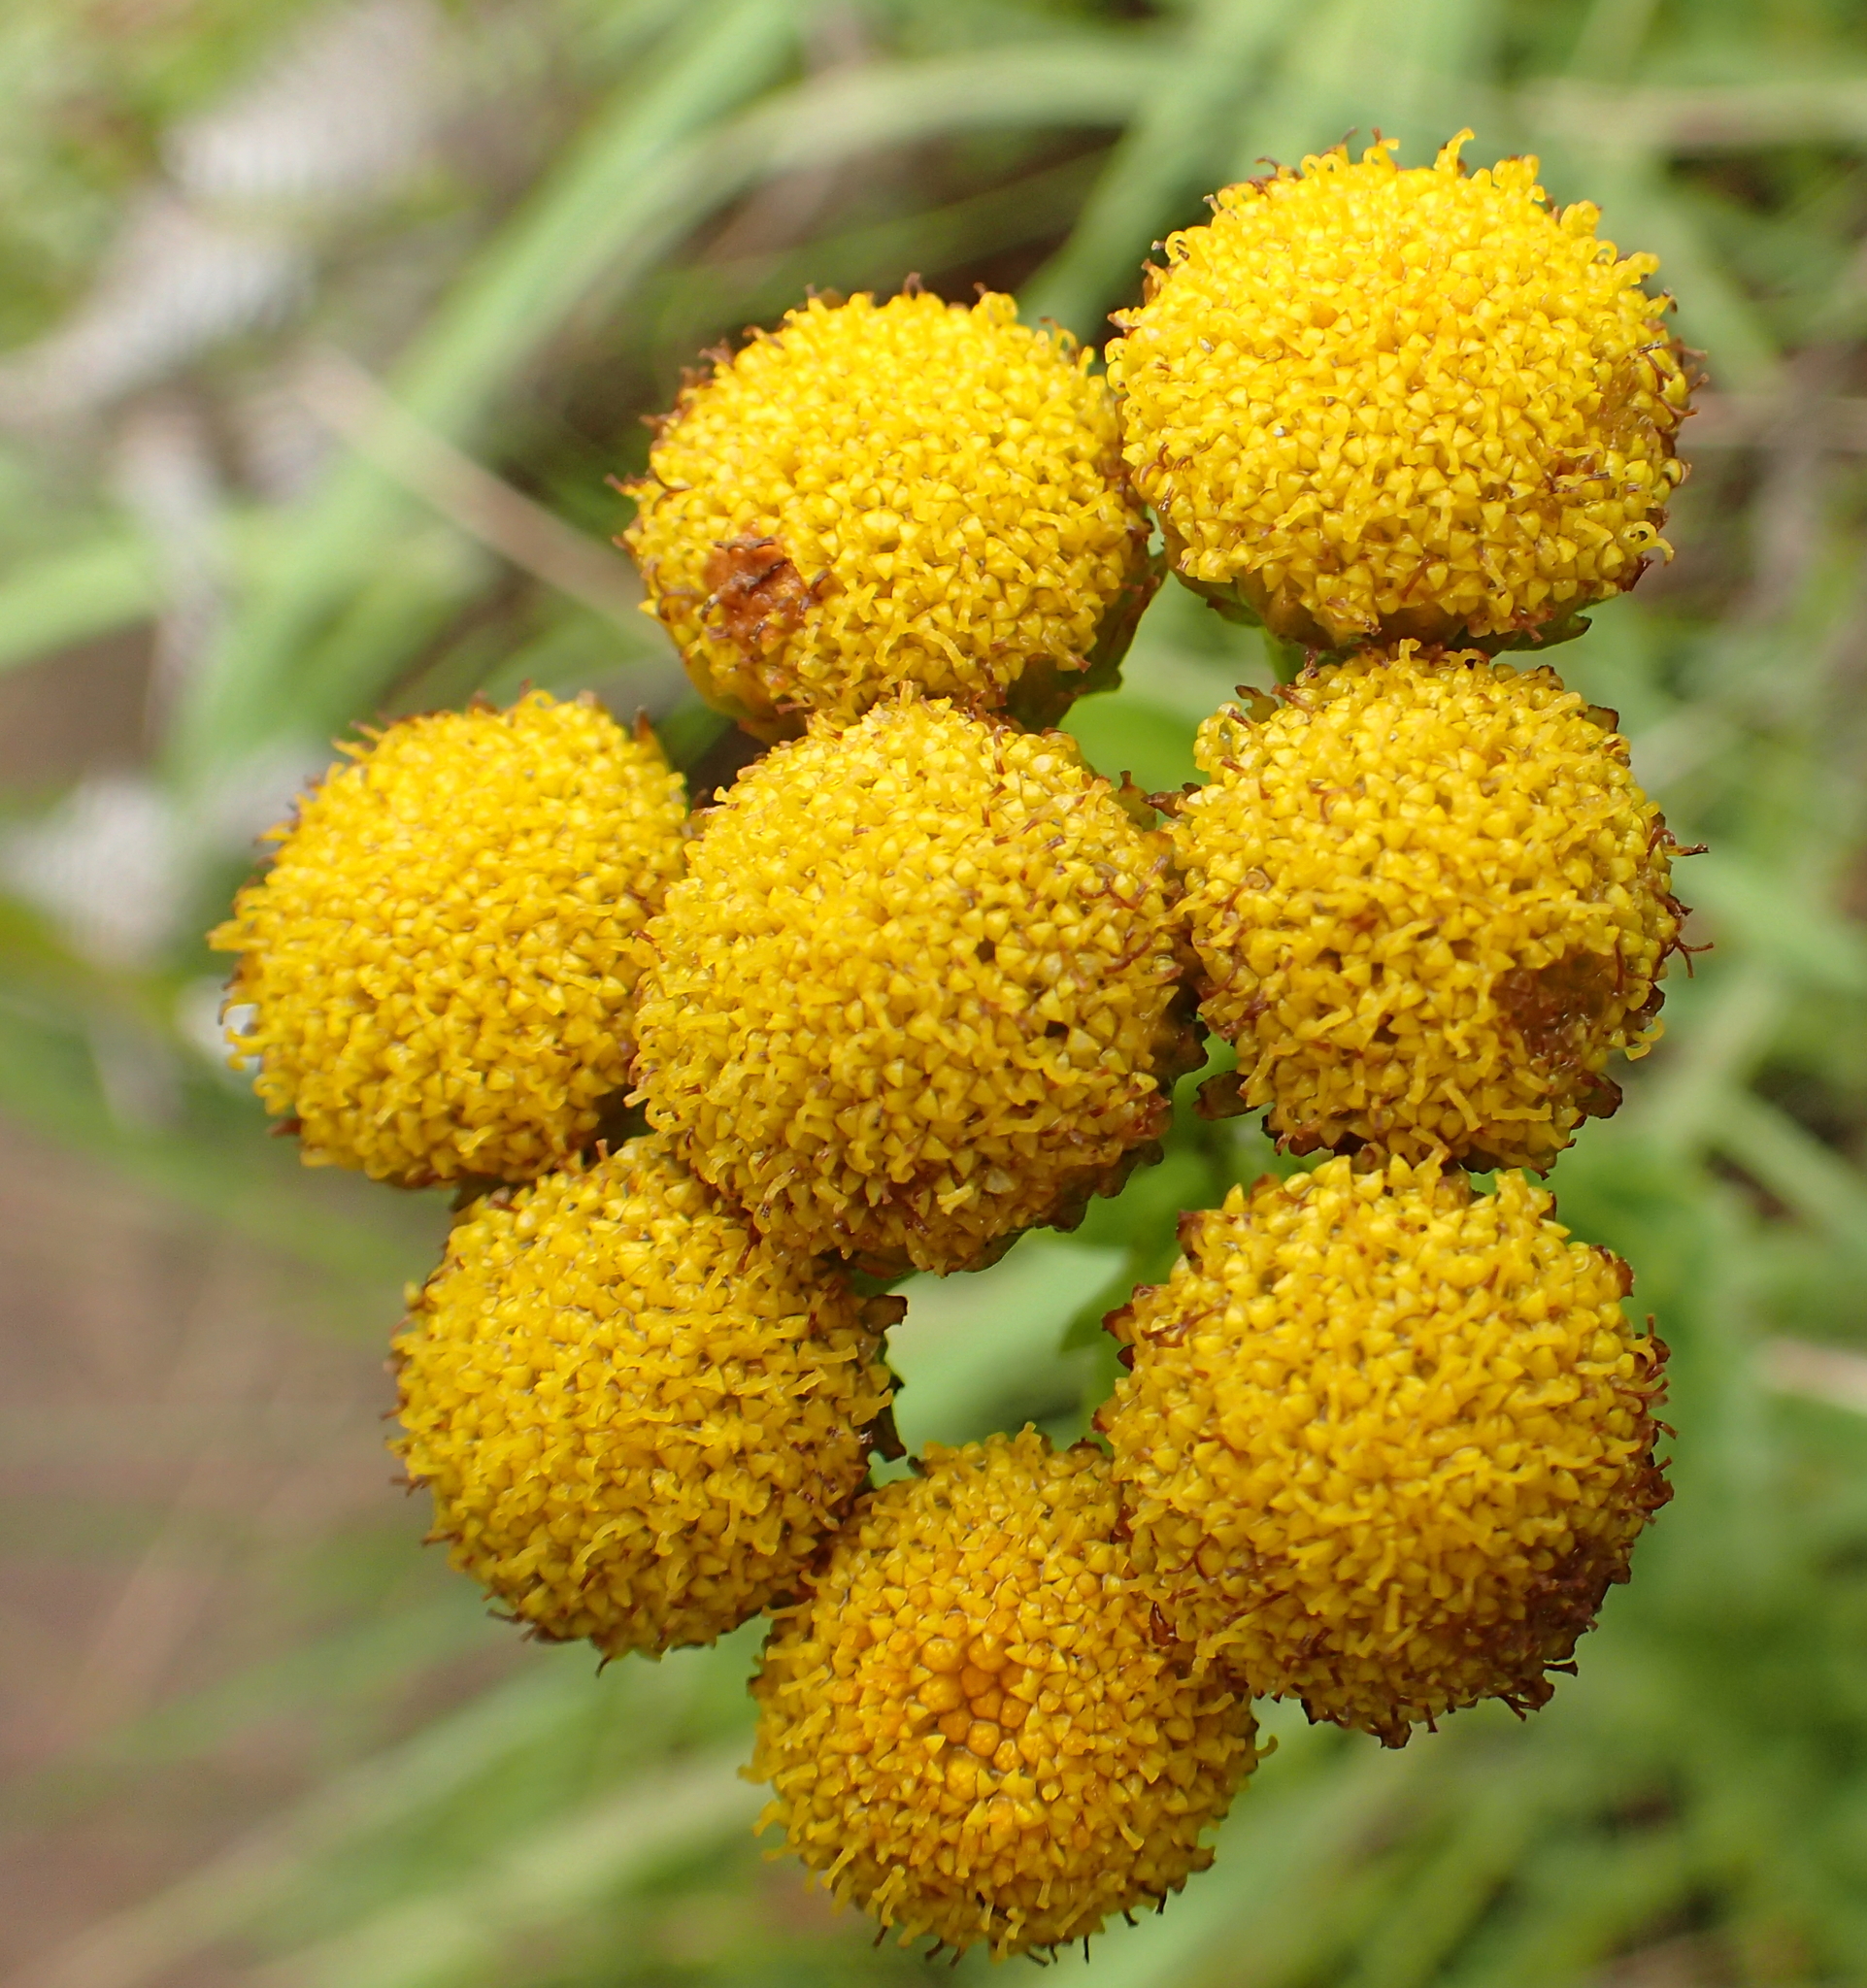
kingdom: Plantae
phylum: Tracheophyta
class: Magnoliopsida
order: Asterales
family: Asteraceae
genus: Inulanthera
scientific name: Inulanthera leucoclada
